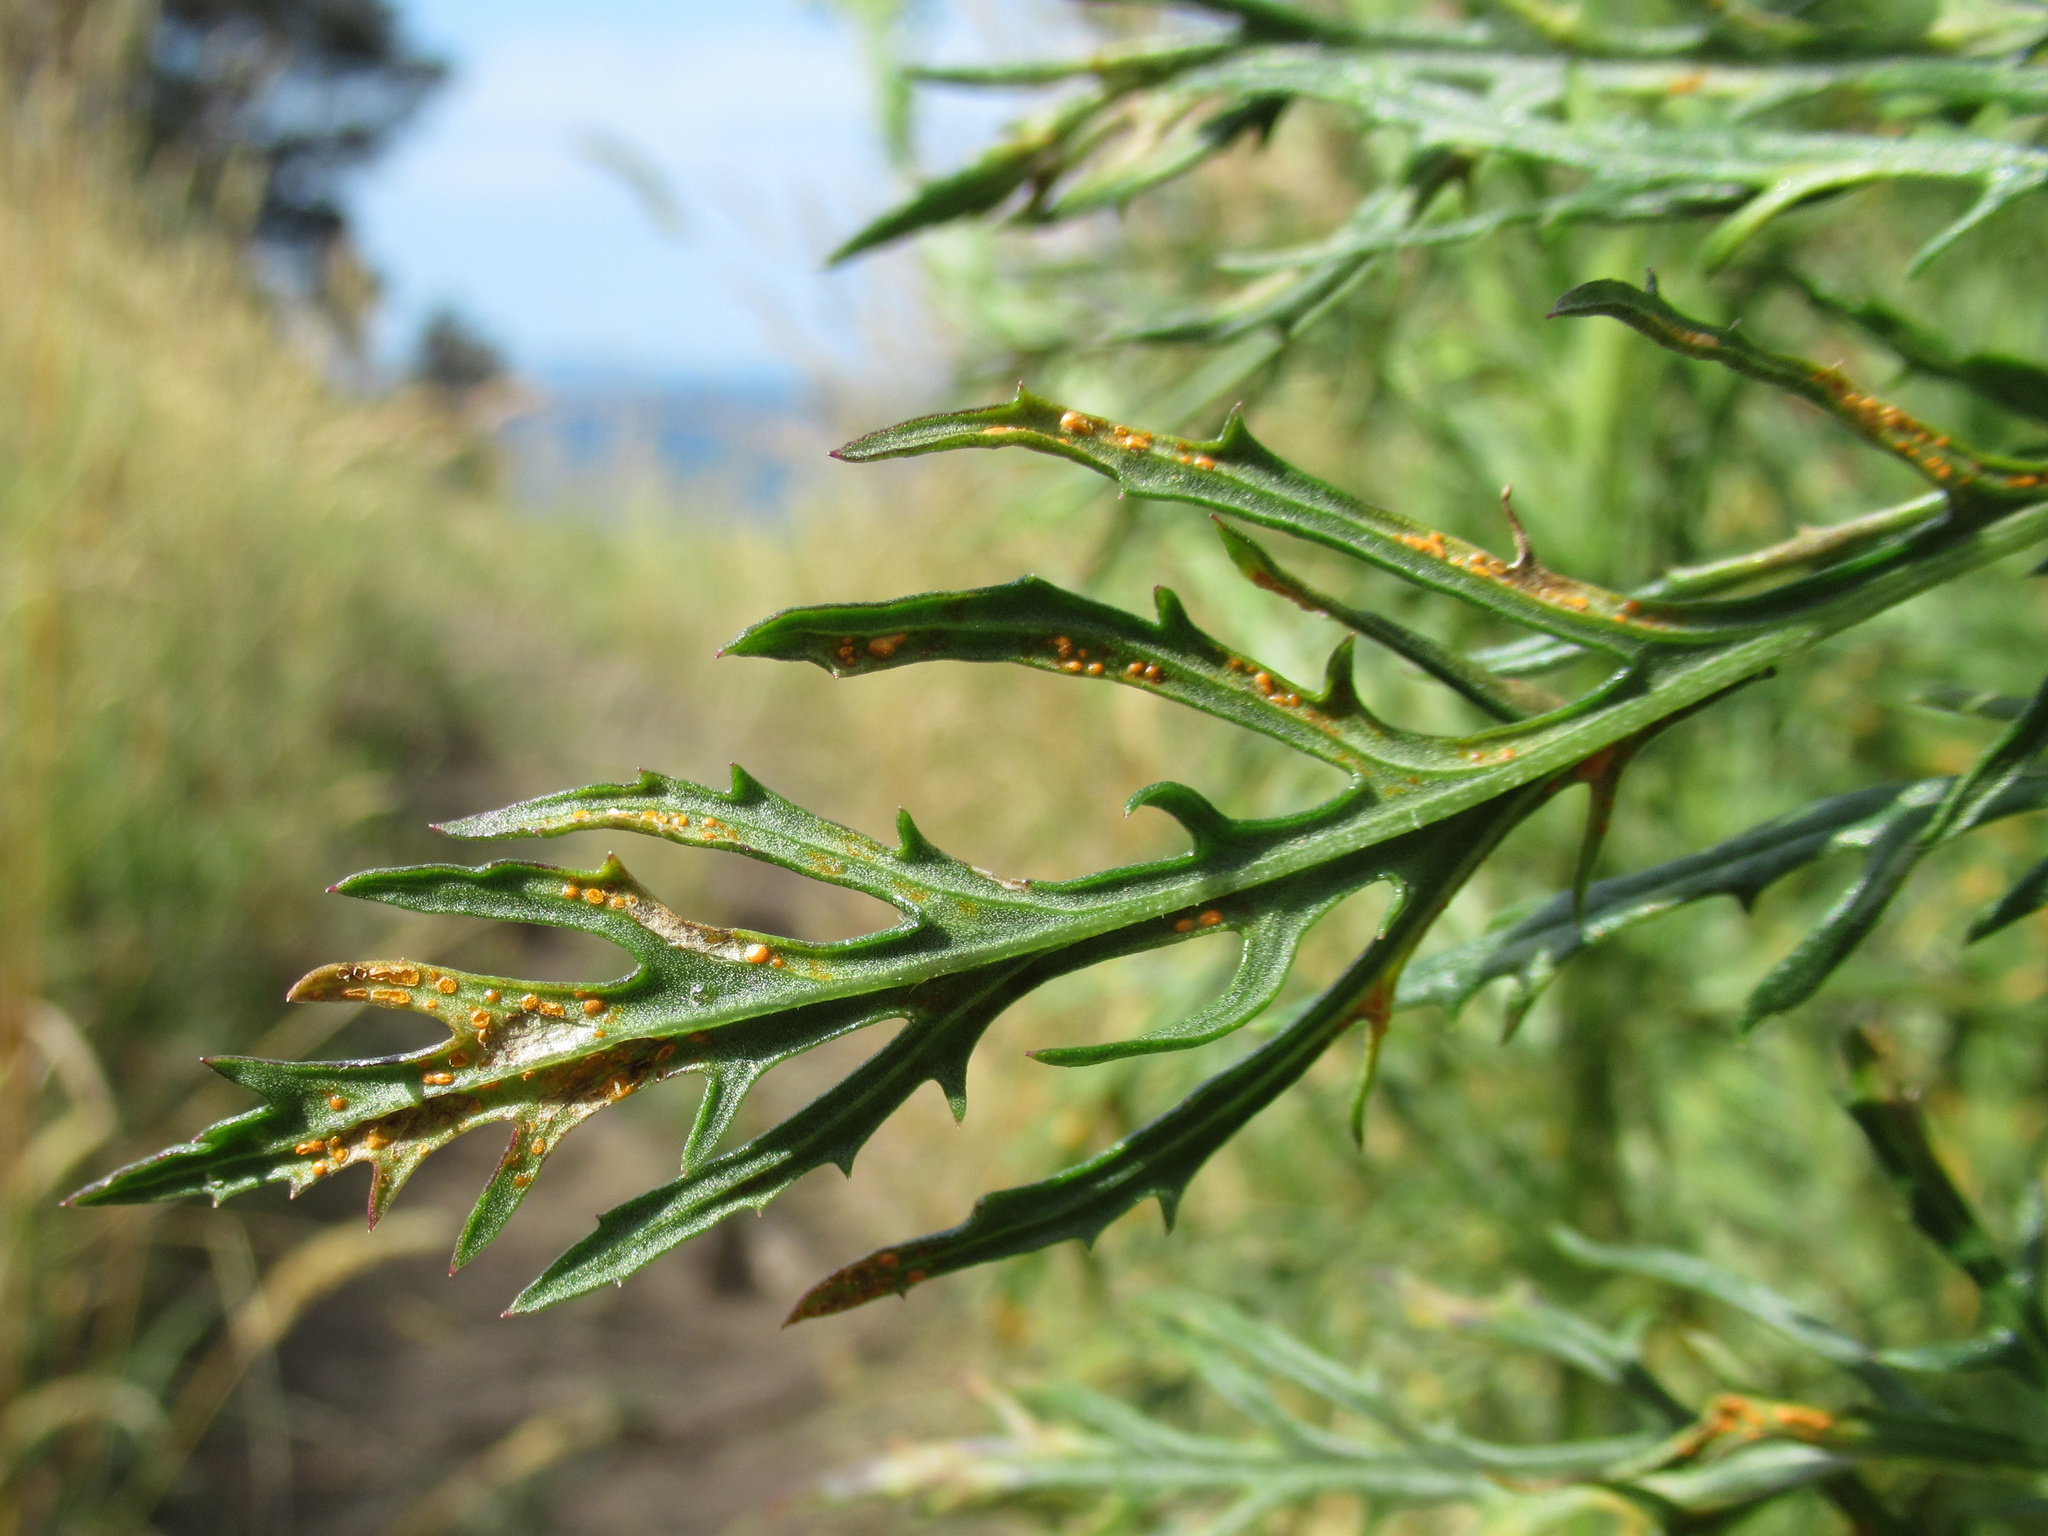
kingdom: Fungi
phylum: Basidiomycota
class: Pucciniomycetes
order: Pucciniales
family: Coleosporiaceae
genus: Coleosporium
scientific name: Coleosporium tussilaginis
